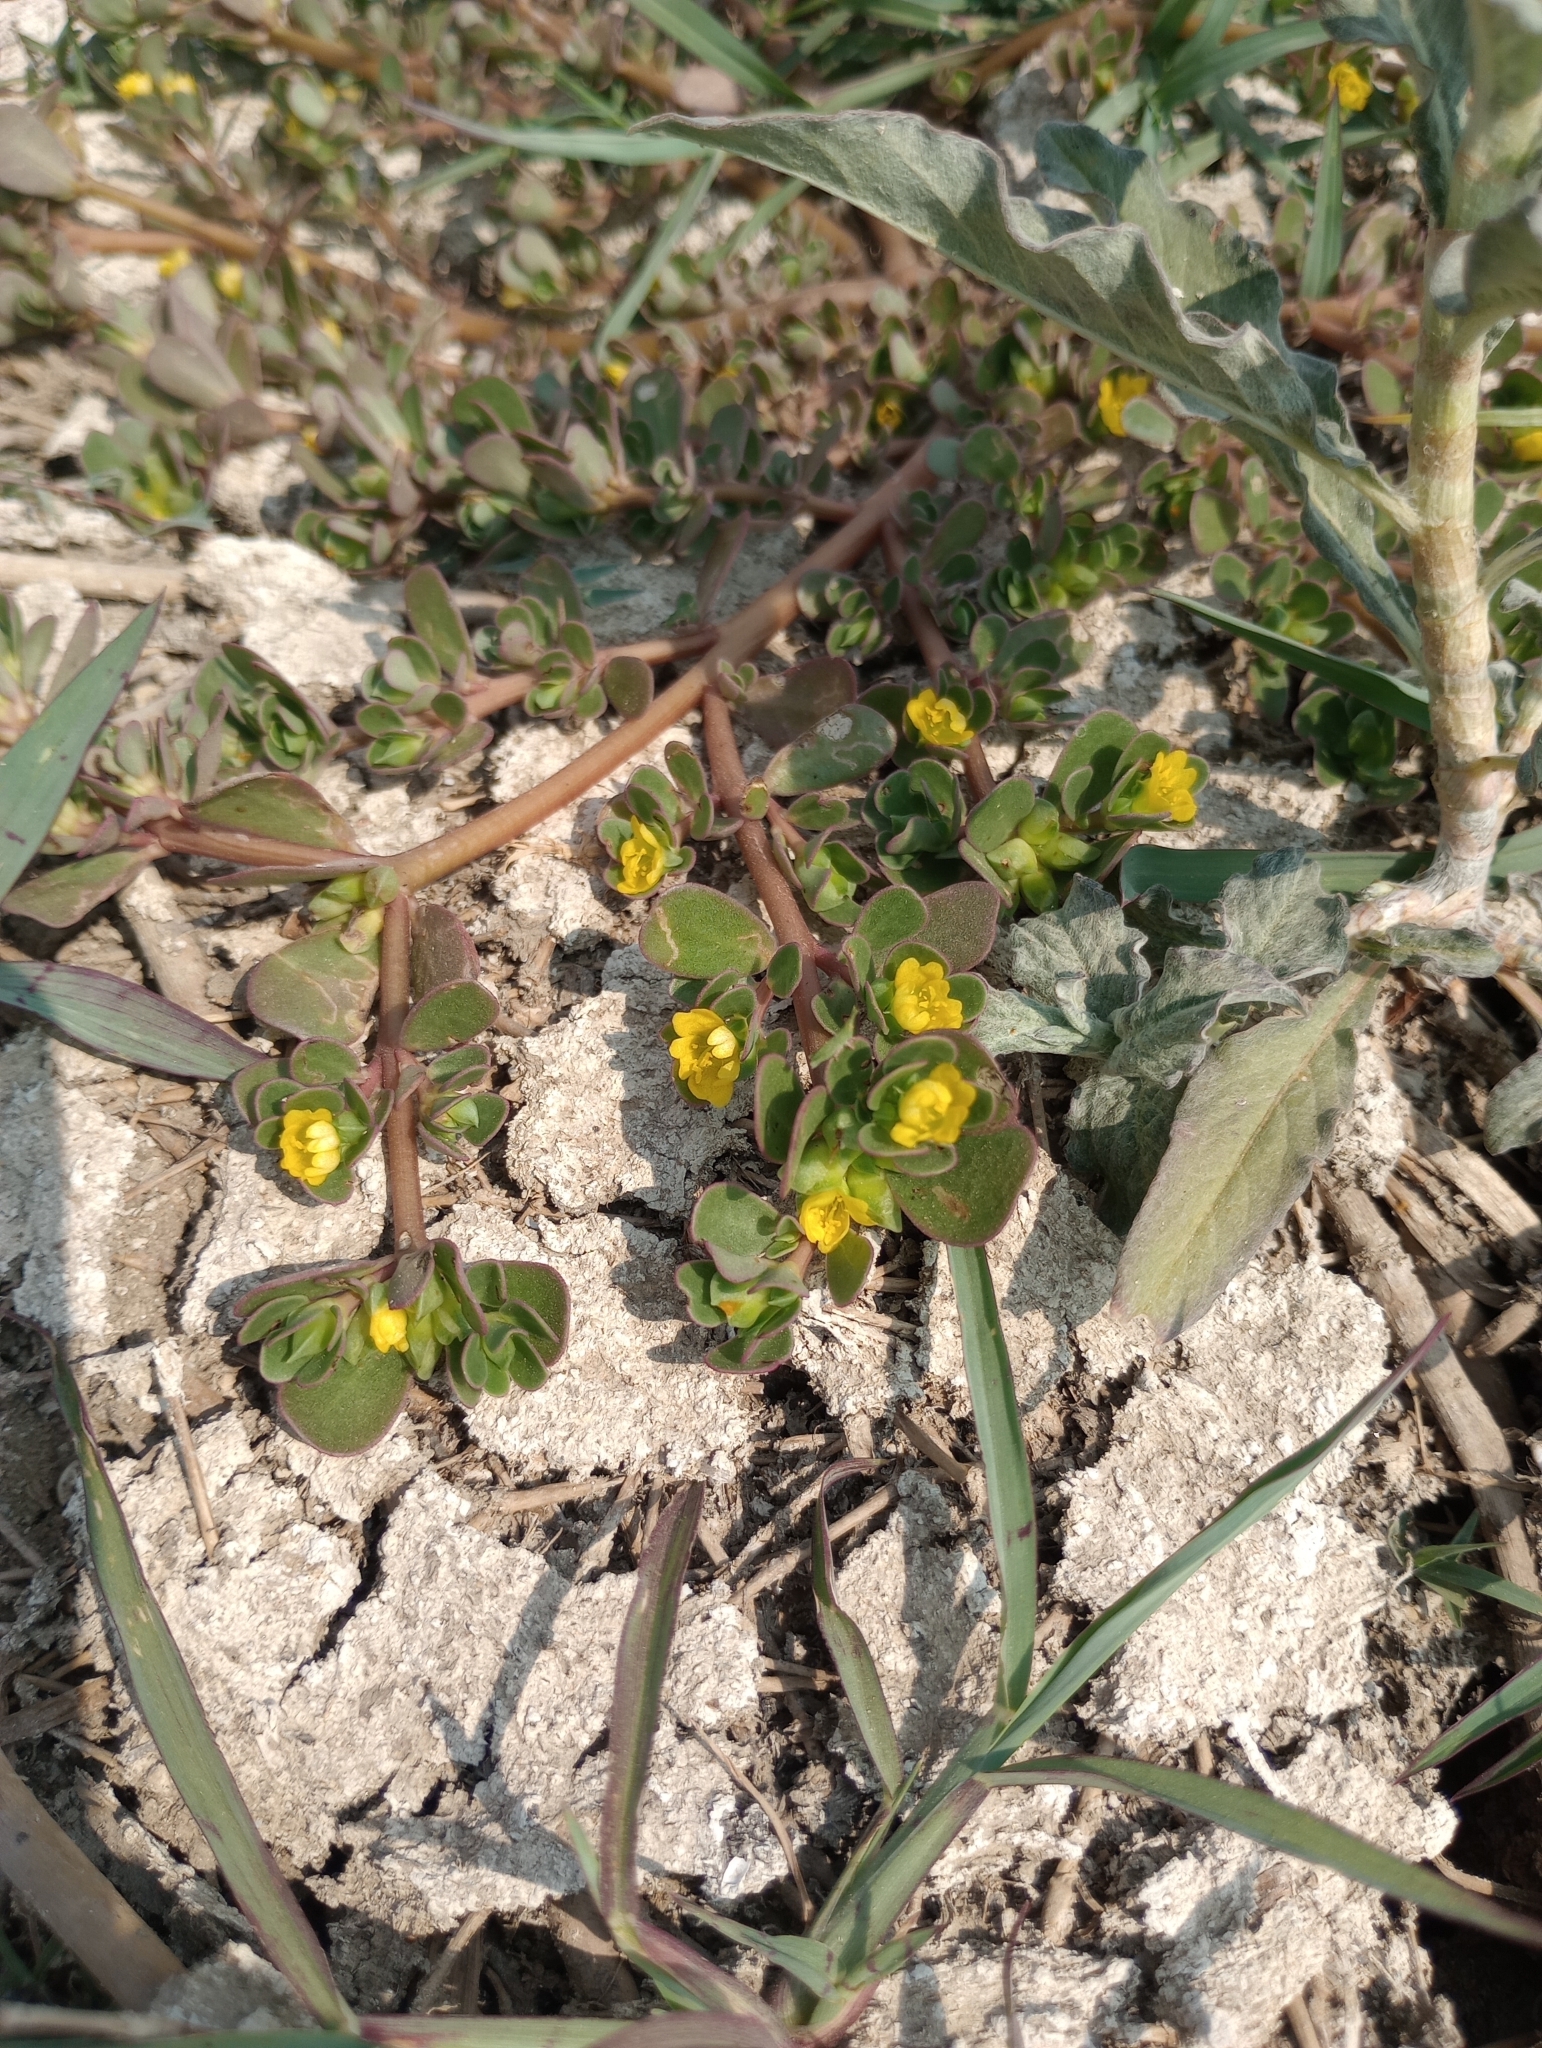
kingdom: Plantae
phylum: Tracheophyta
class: Magnoliopsida
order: Caryophyllales
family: Portulacaceae
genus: Portulaca
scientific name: Portulaca oleracea
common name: Common purslane
